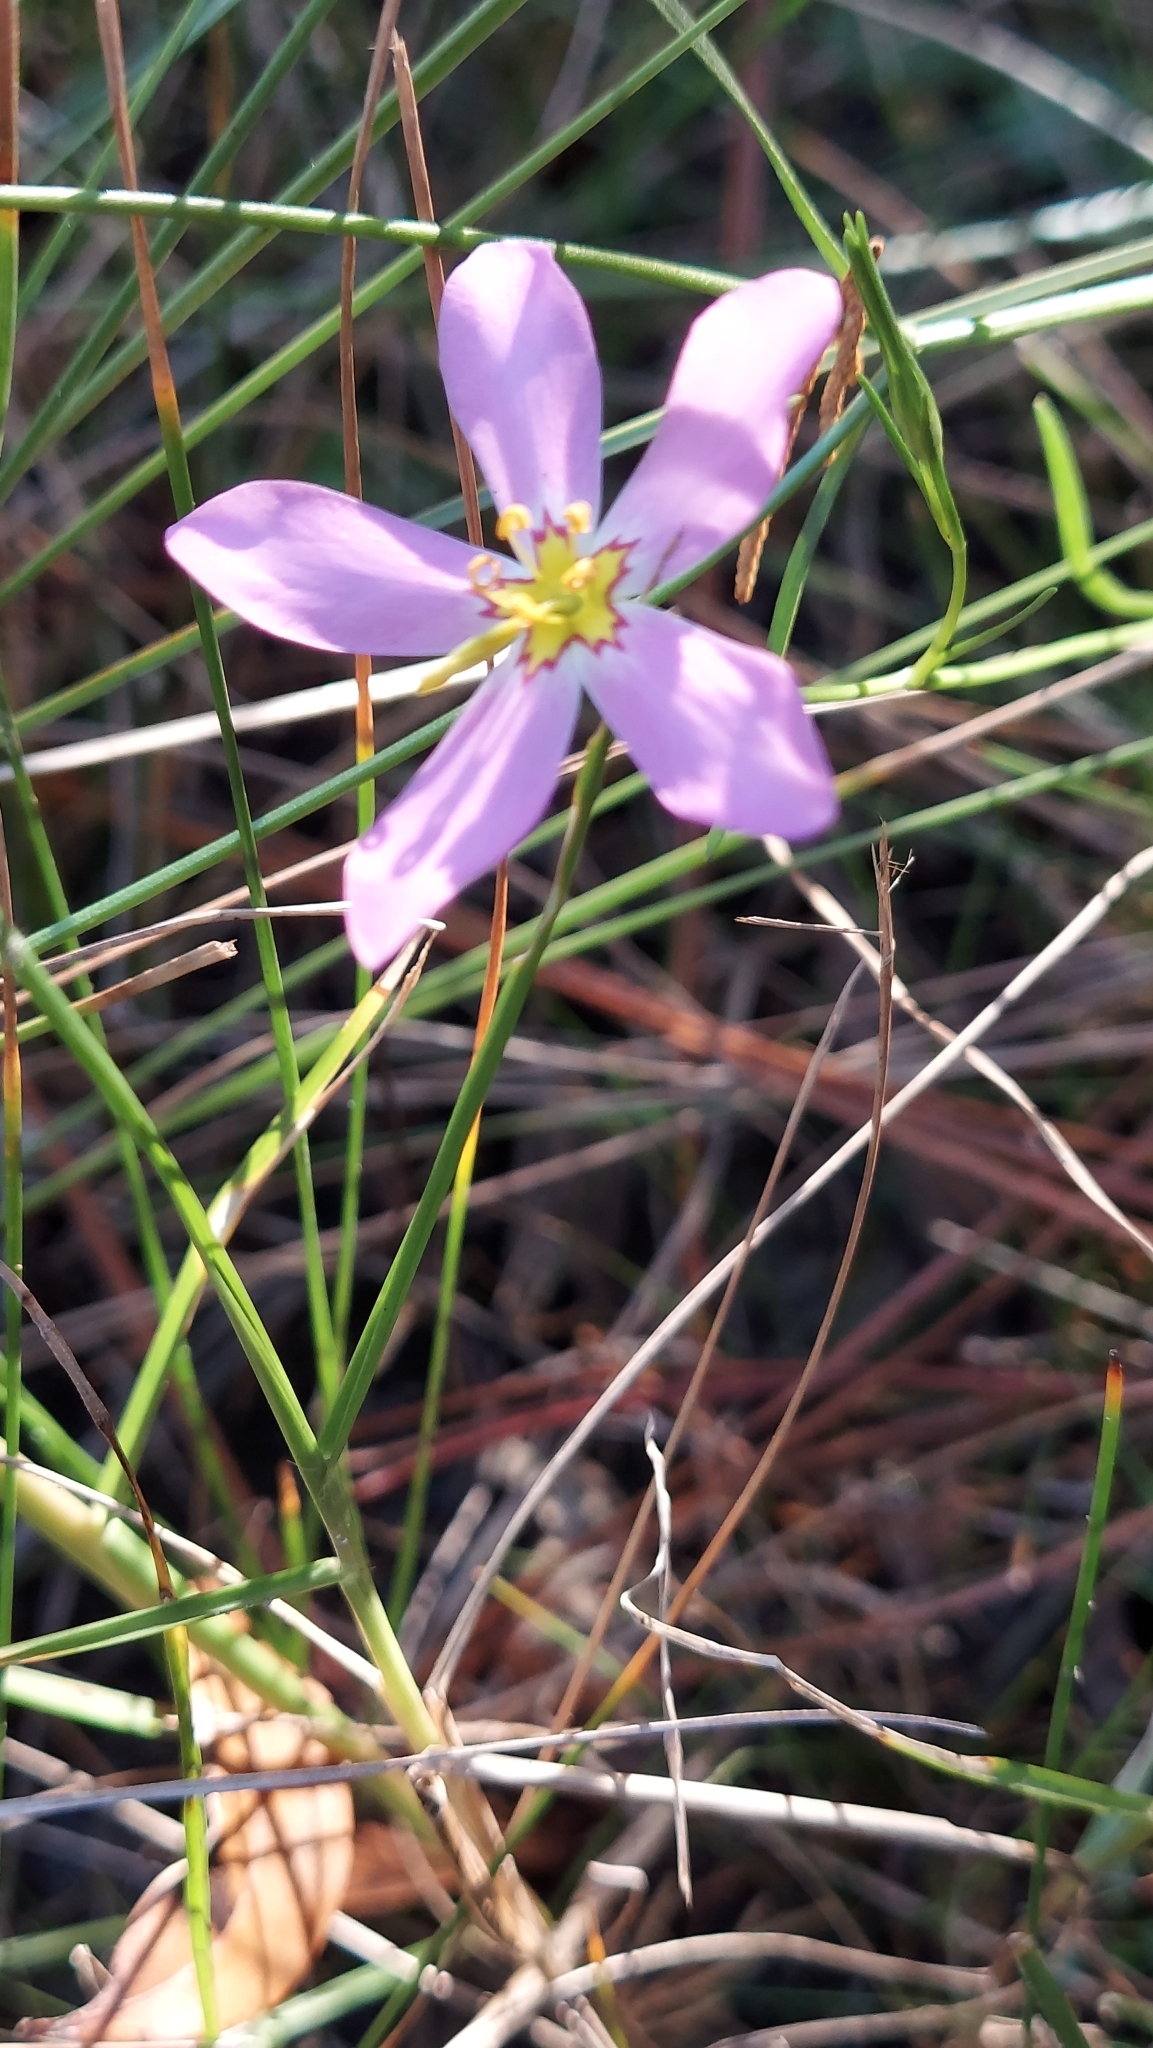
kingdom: Plantae
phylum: Tracheophyta
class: Magnoliopsida
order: Gentianales
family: Gentianaceae
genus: Sabatia
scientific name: Sabatia stellaris
